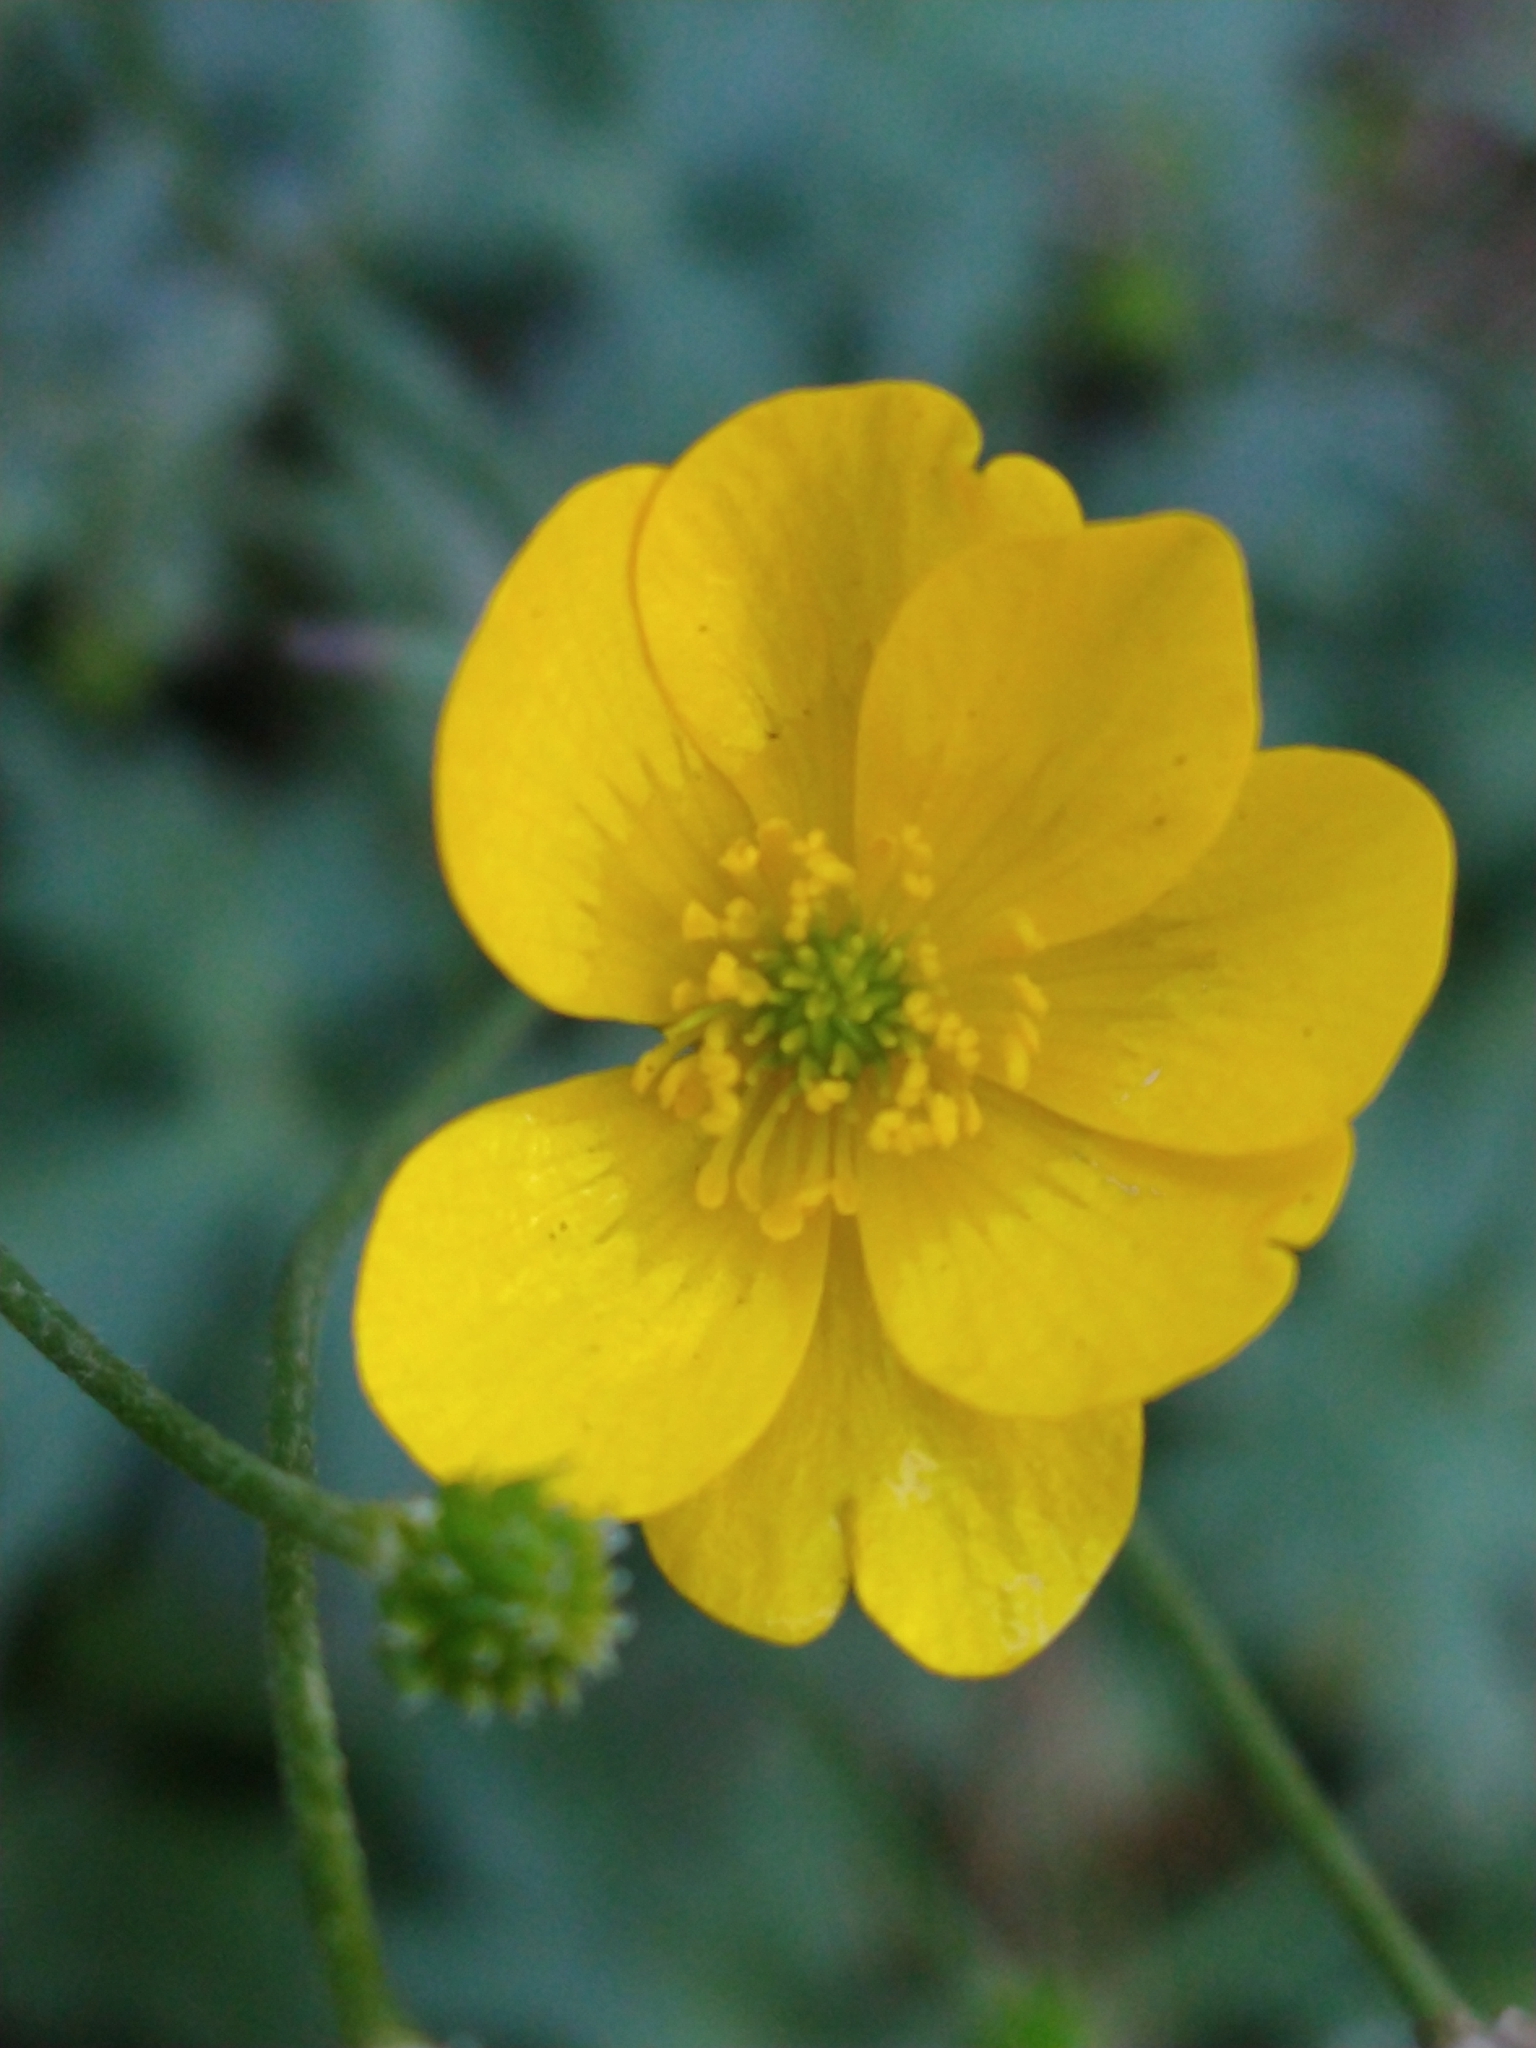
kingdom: Plantae
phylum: Tracheophyta
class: Magnoliopsida
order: Ranunculales
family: Ranunculaceae
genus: Ranunculus
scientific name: Ranunculus repens
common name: Creeping buttercup
